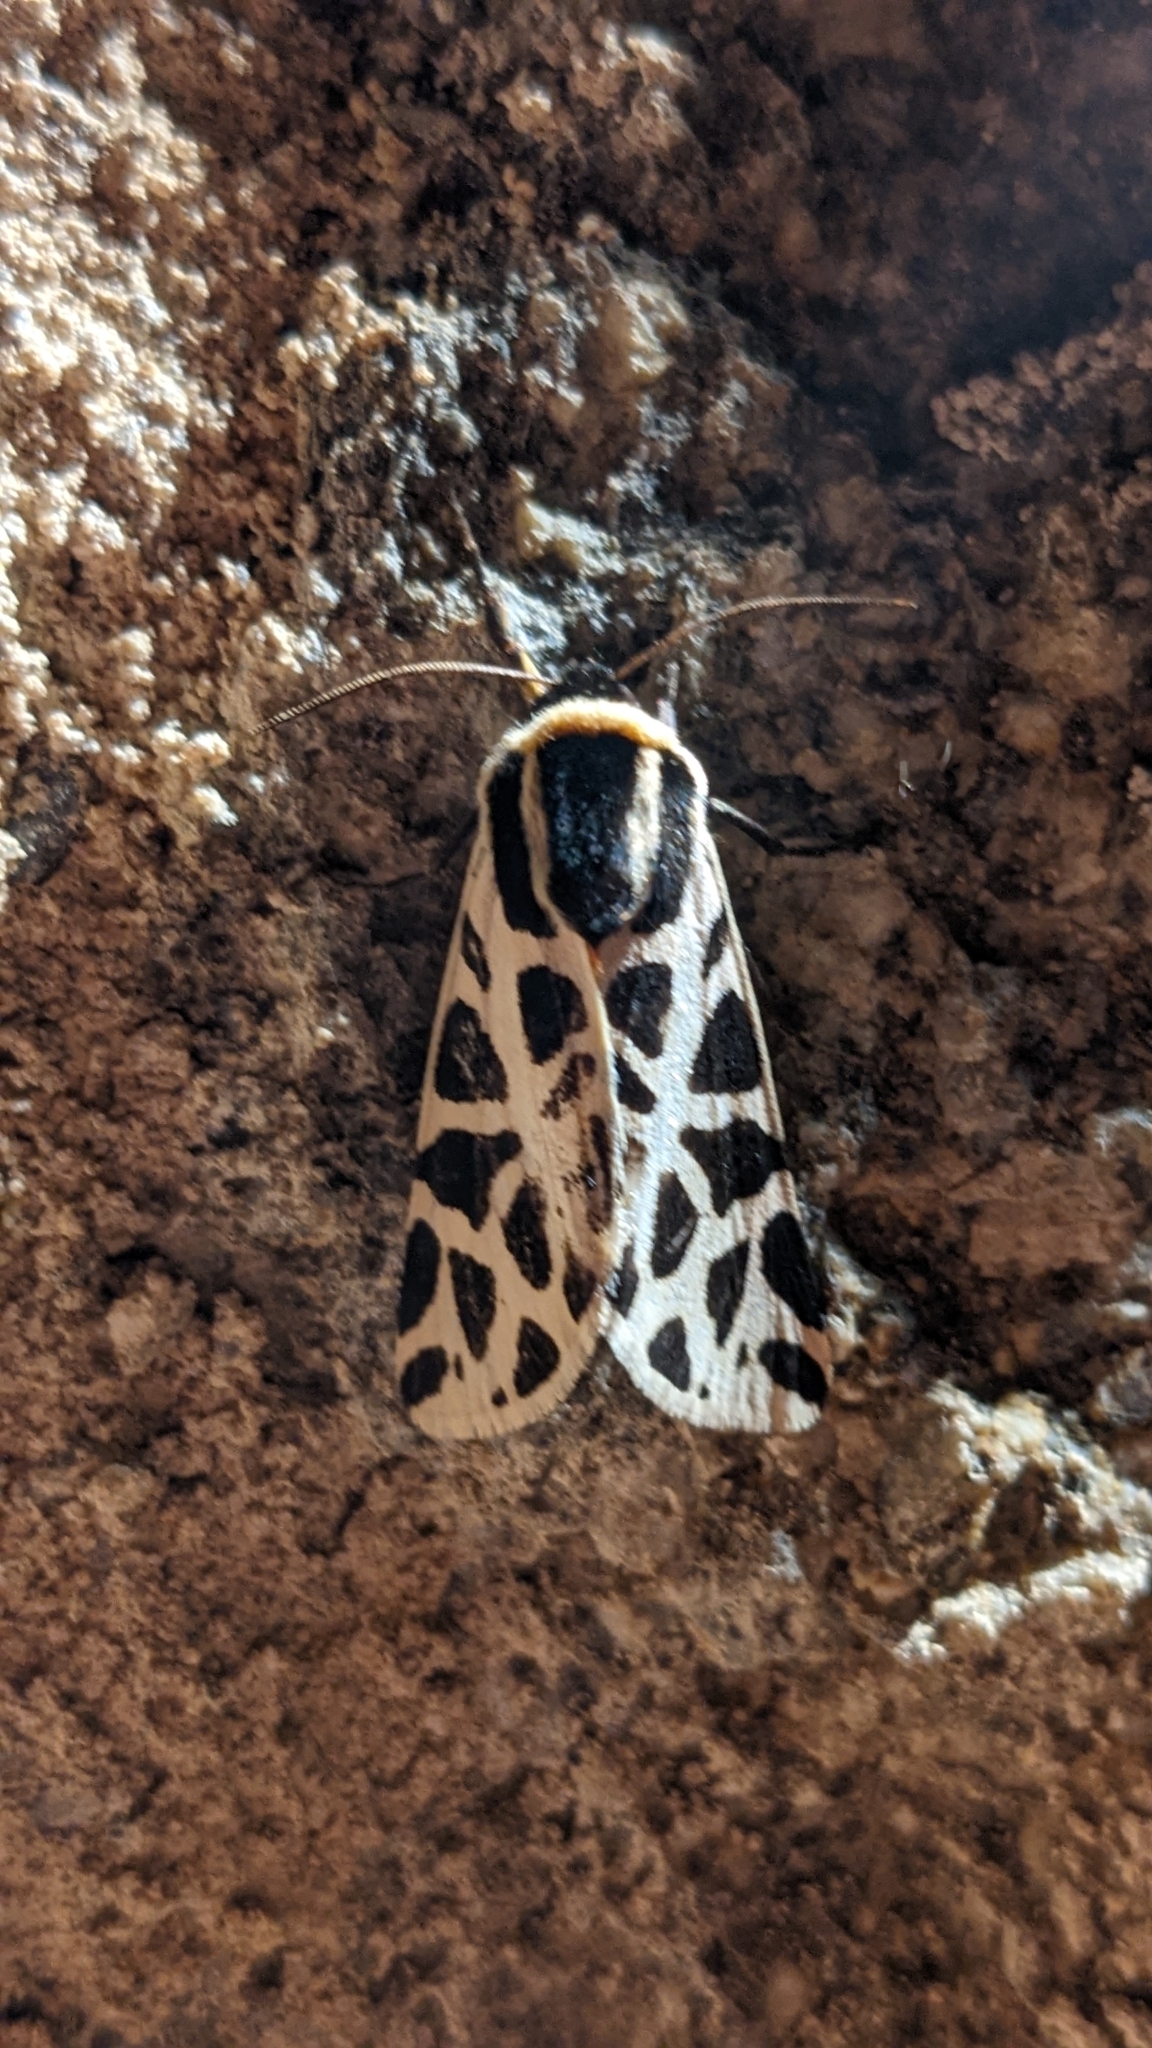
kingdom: Animalia
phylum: Arthropoda
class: Insecta
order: Lepidoptera
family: Erebidae
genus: Cymbalophora
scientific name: Cymbalophora pudica
